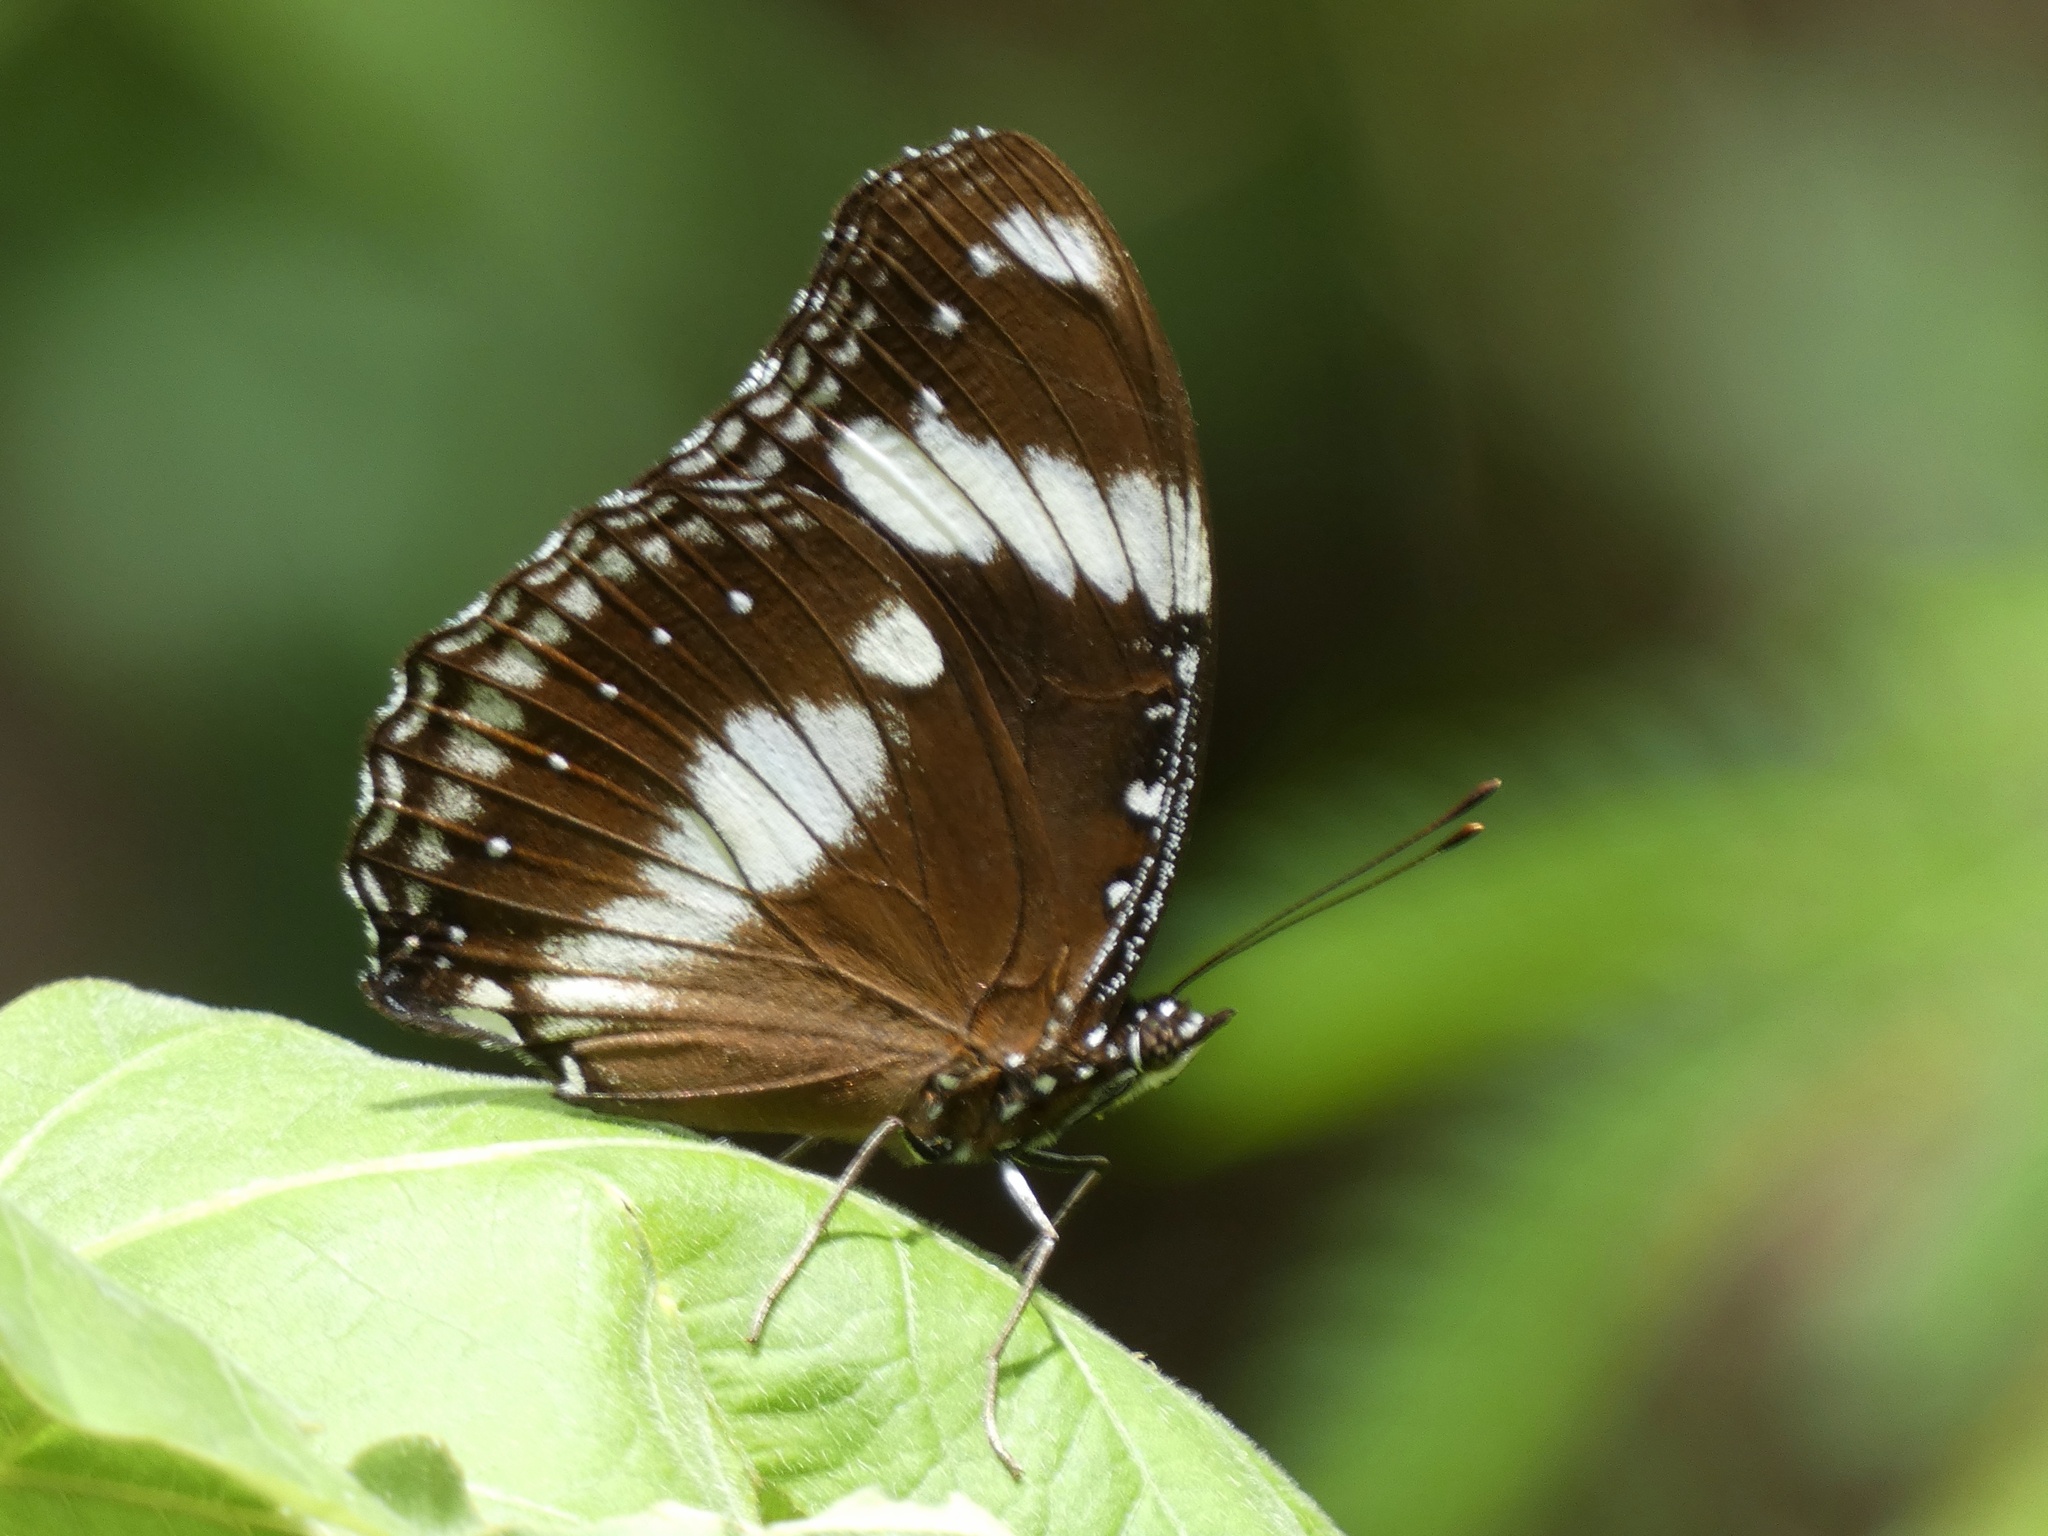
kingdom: Animalia
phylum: Arthropoda
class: Insecta
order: Lepidoptera
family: Nymphalidae
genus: Hypolimnas
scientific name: Hypolimnas bolina
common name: Great eggfly
